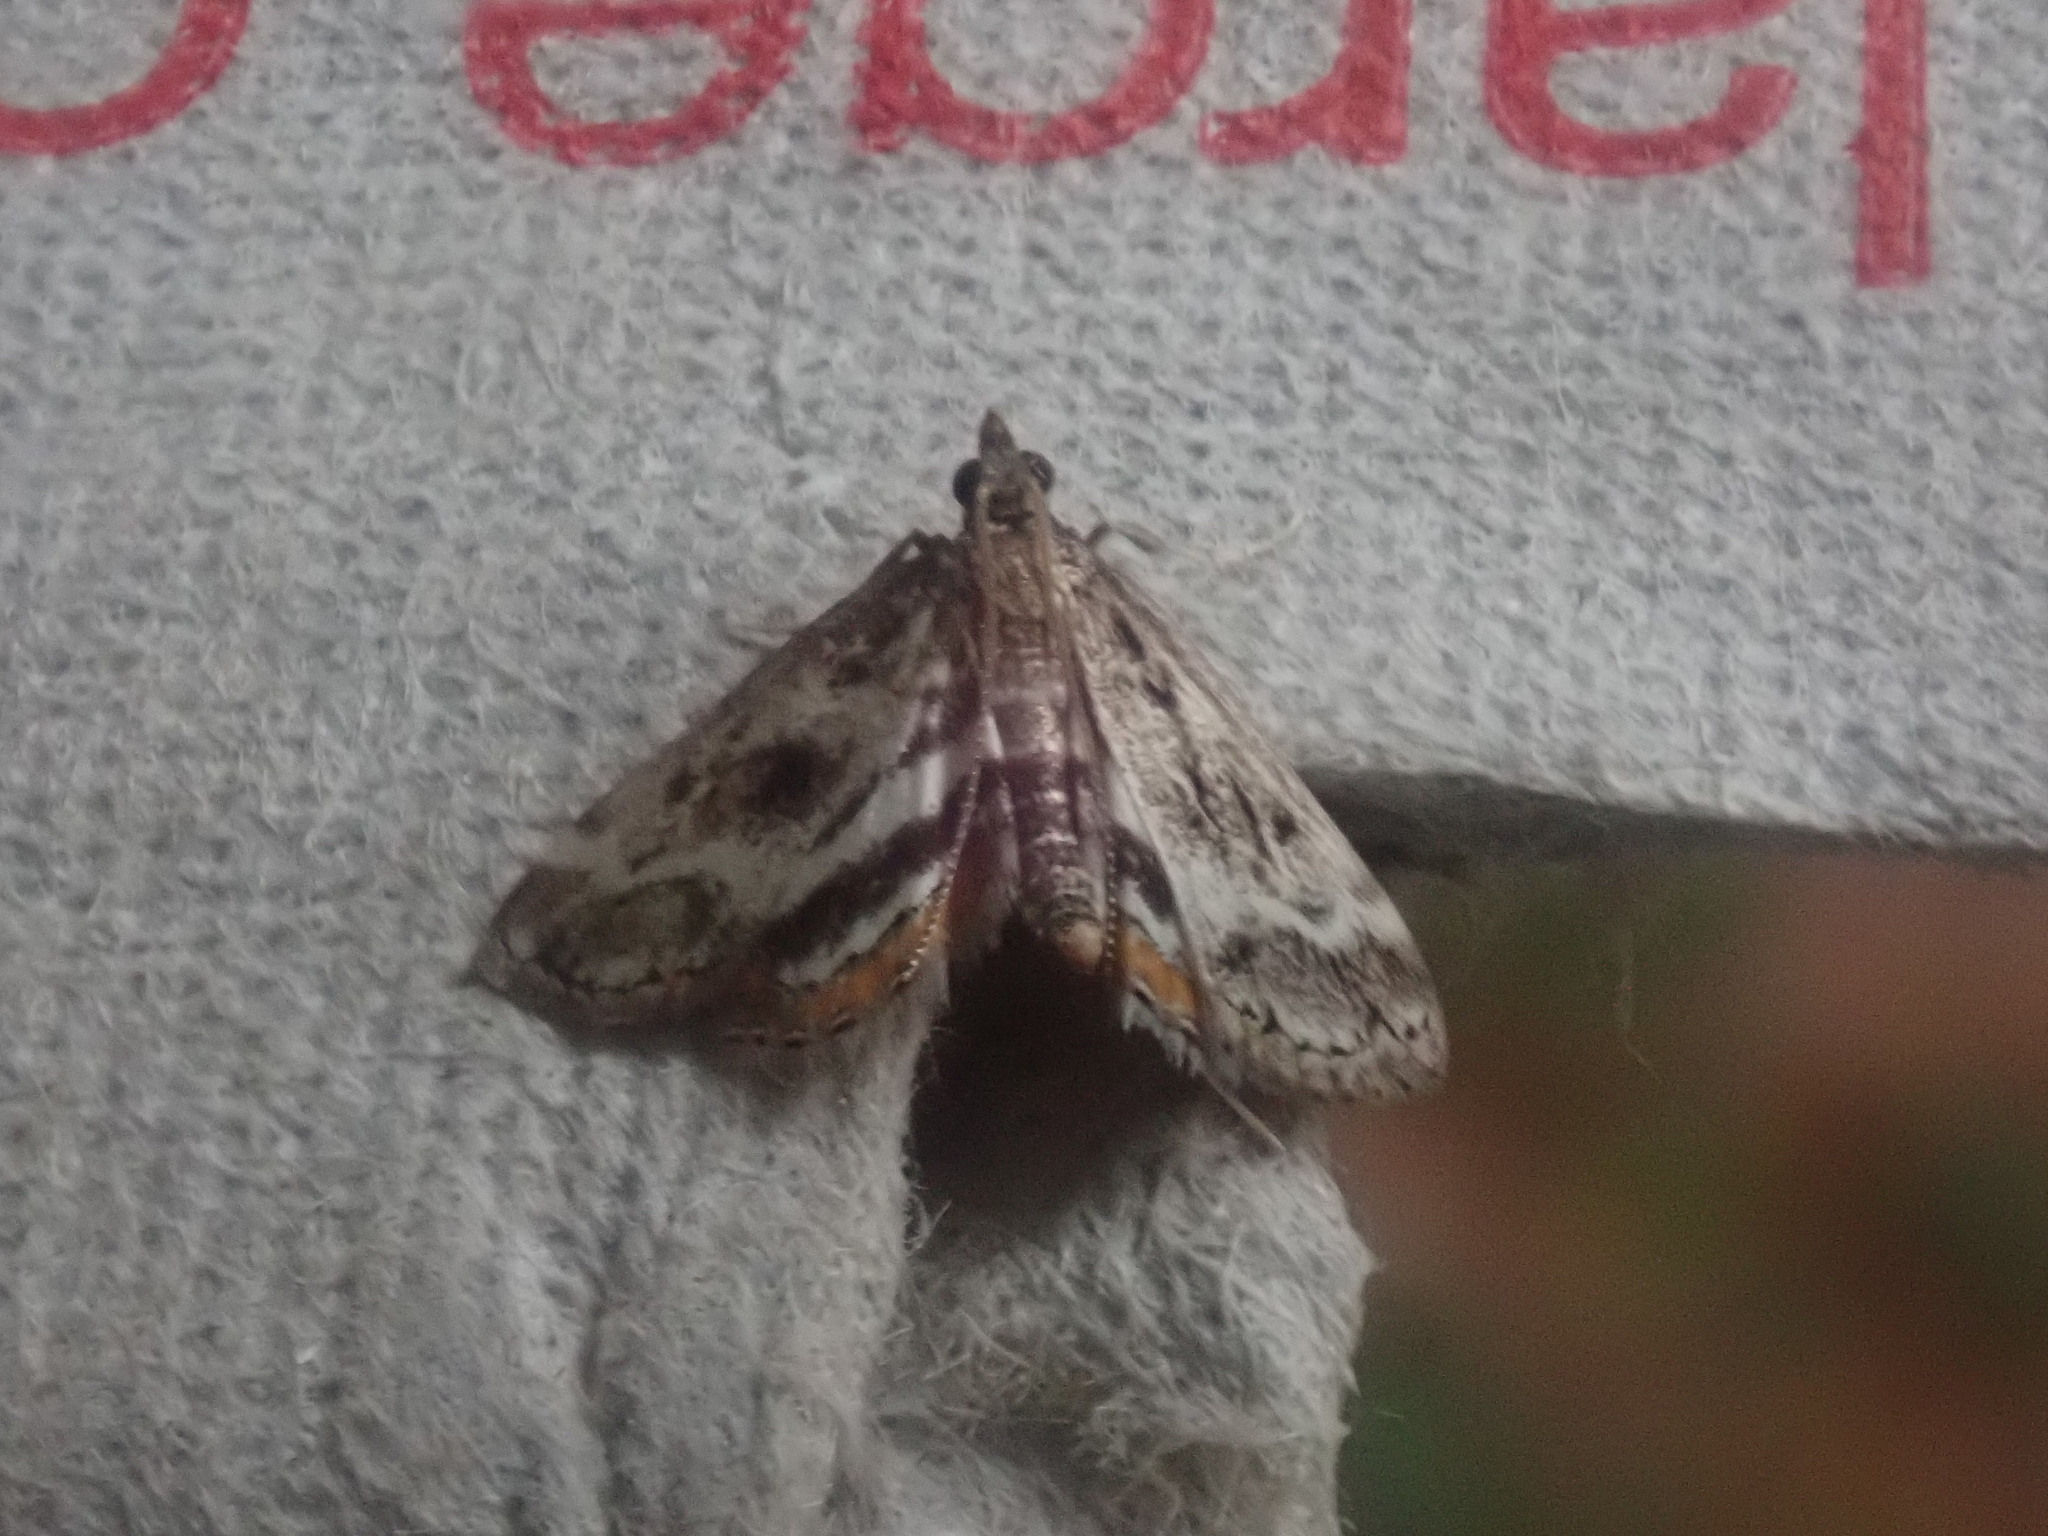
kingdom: Animalia
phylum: Arthropoda
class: Insecta
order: Lepidoptera
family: Crambidae
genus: Parapoynx
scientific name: Parapoynx obscuralis
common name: American china-mark
